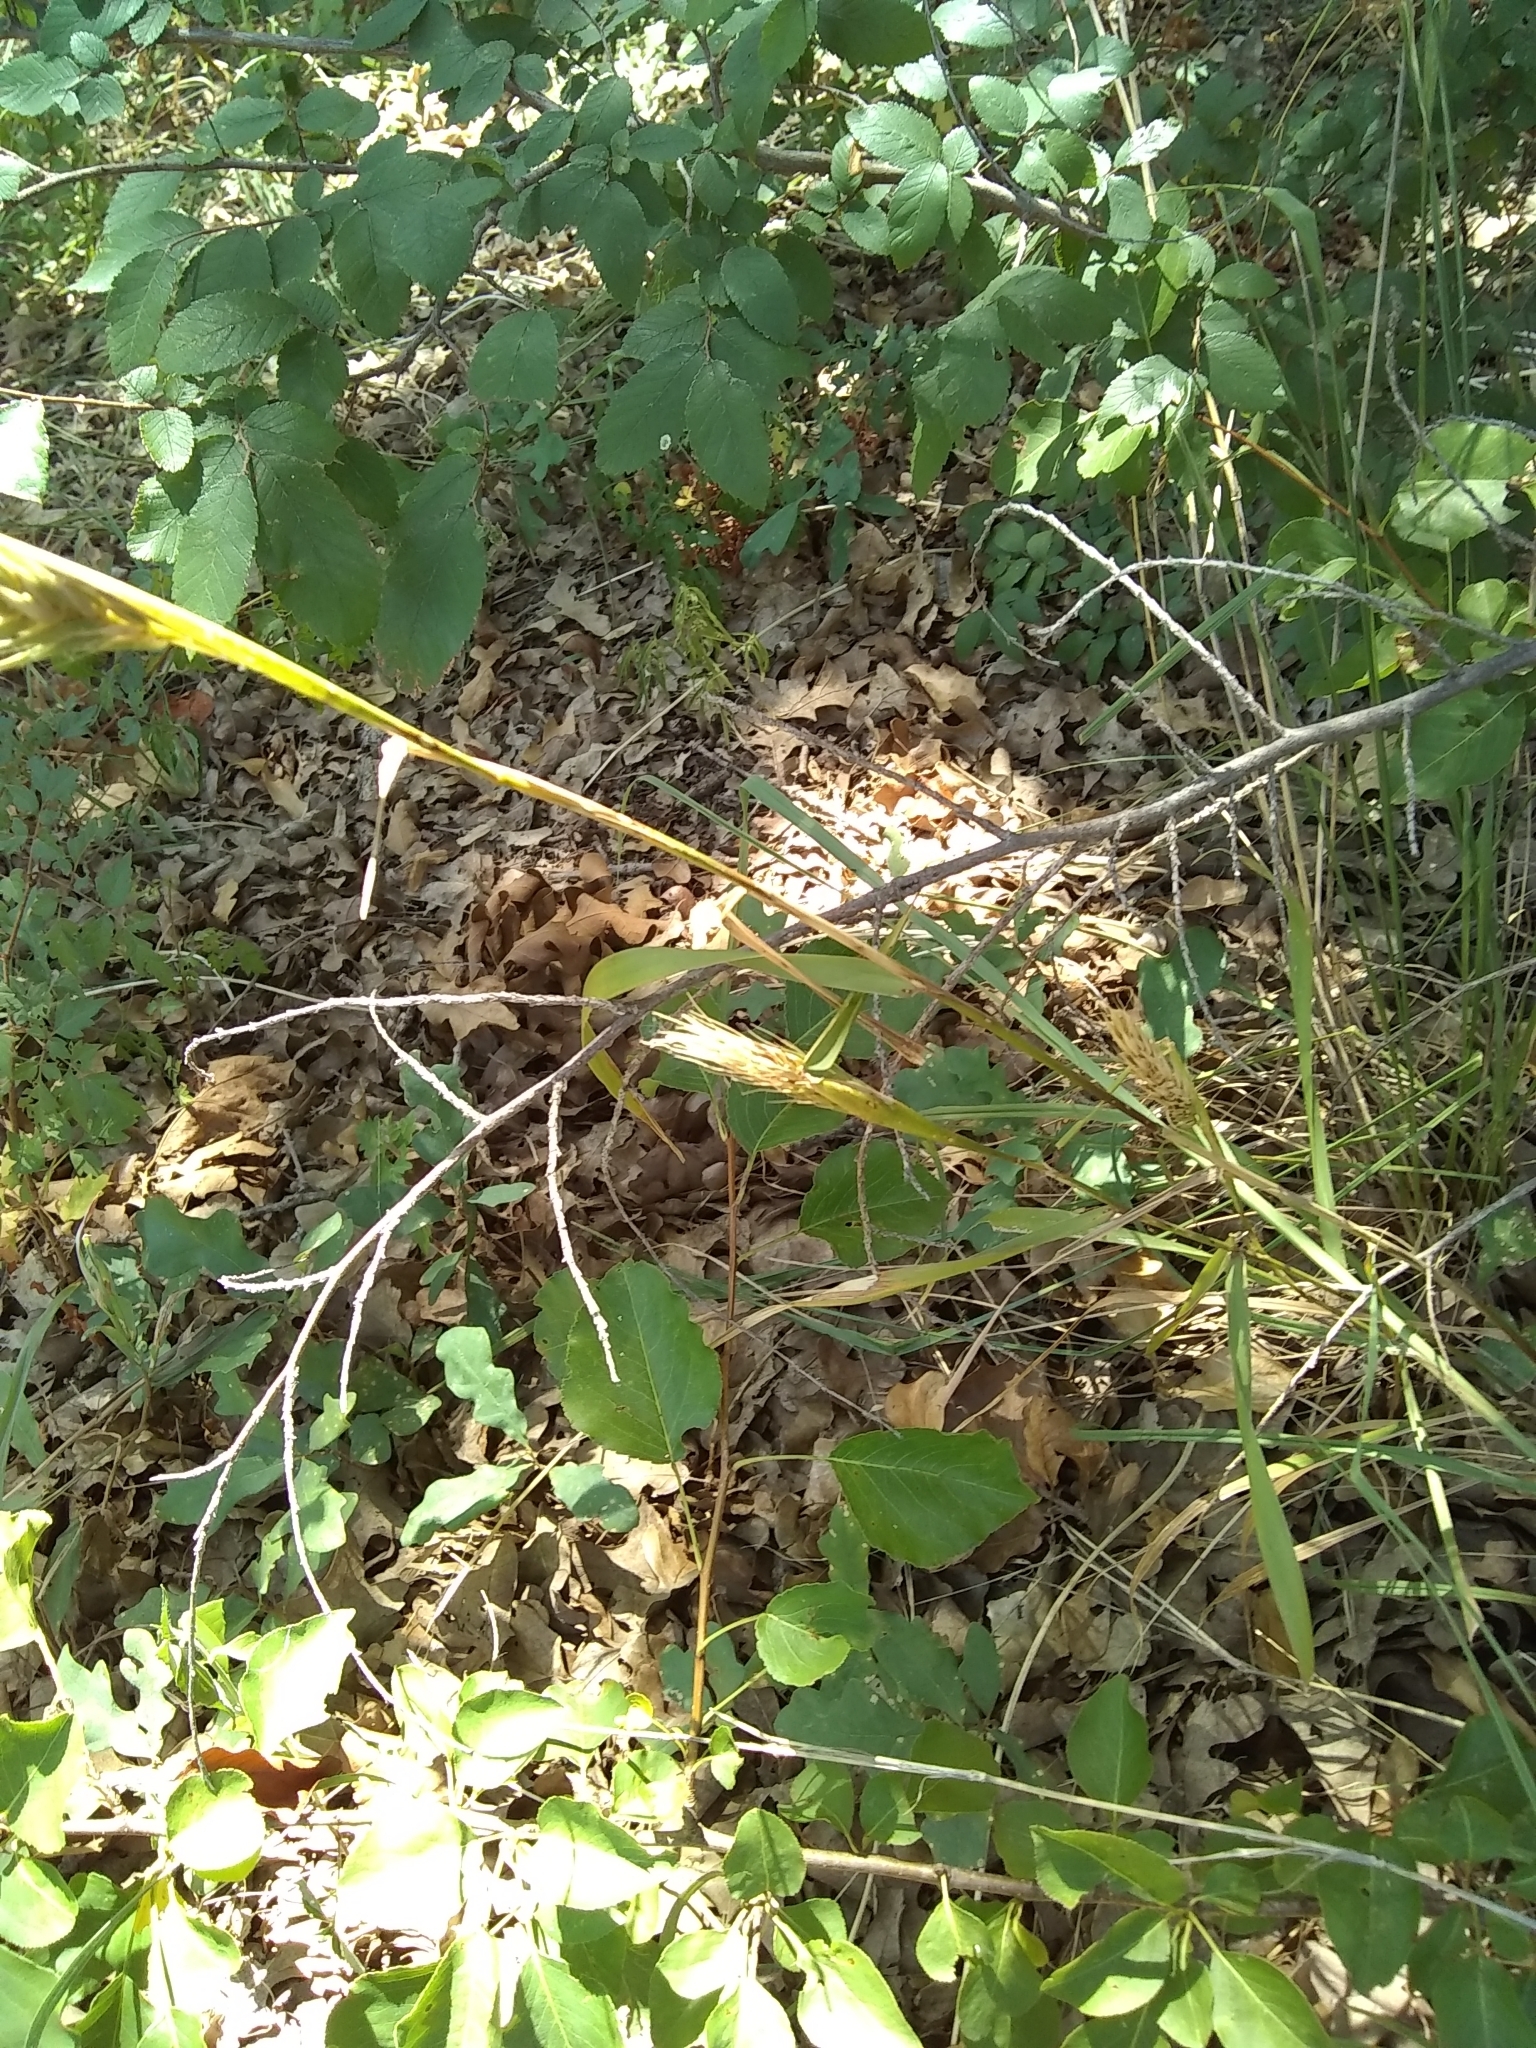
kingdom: Plantae
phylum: Tracheophyta
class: Liliopsida
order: Poales
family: Poaceae
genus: Elymus
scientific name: Elymus virginicus
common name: Common eastern wildrye
